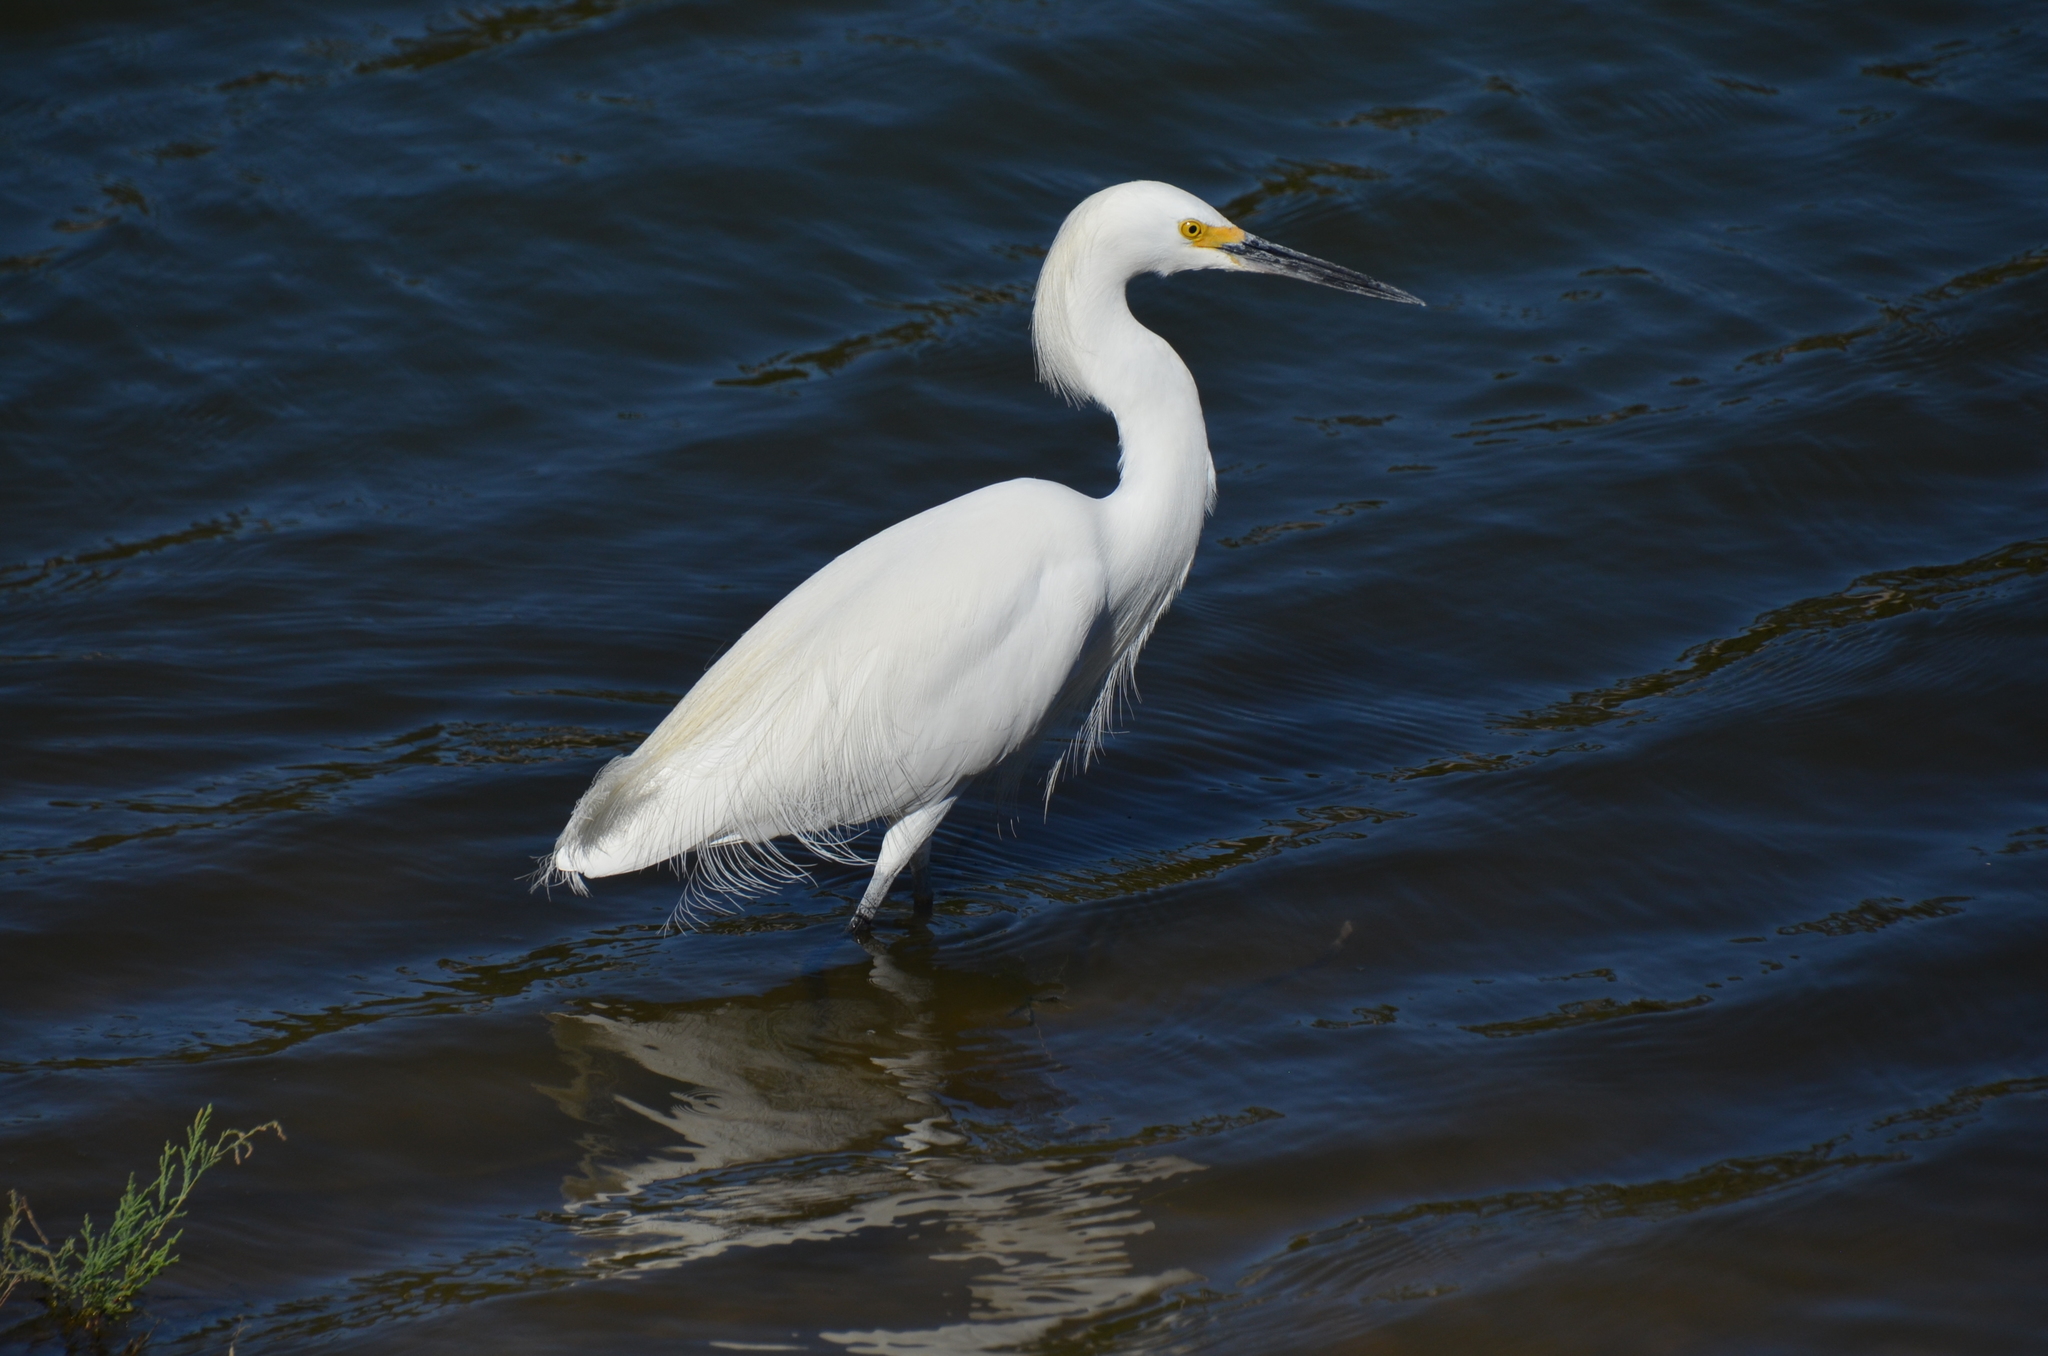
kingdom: Animalia
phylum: Chordata
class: Aves
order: Pelecaniformes
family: Ardeidae
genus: Egretta
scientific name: Egretta thula
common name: Snowy egret
